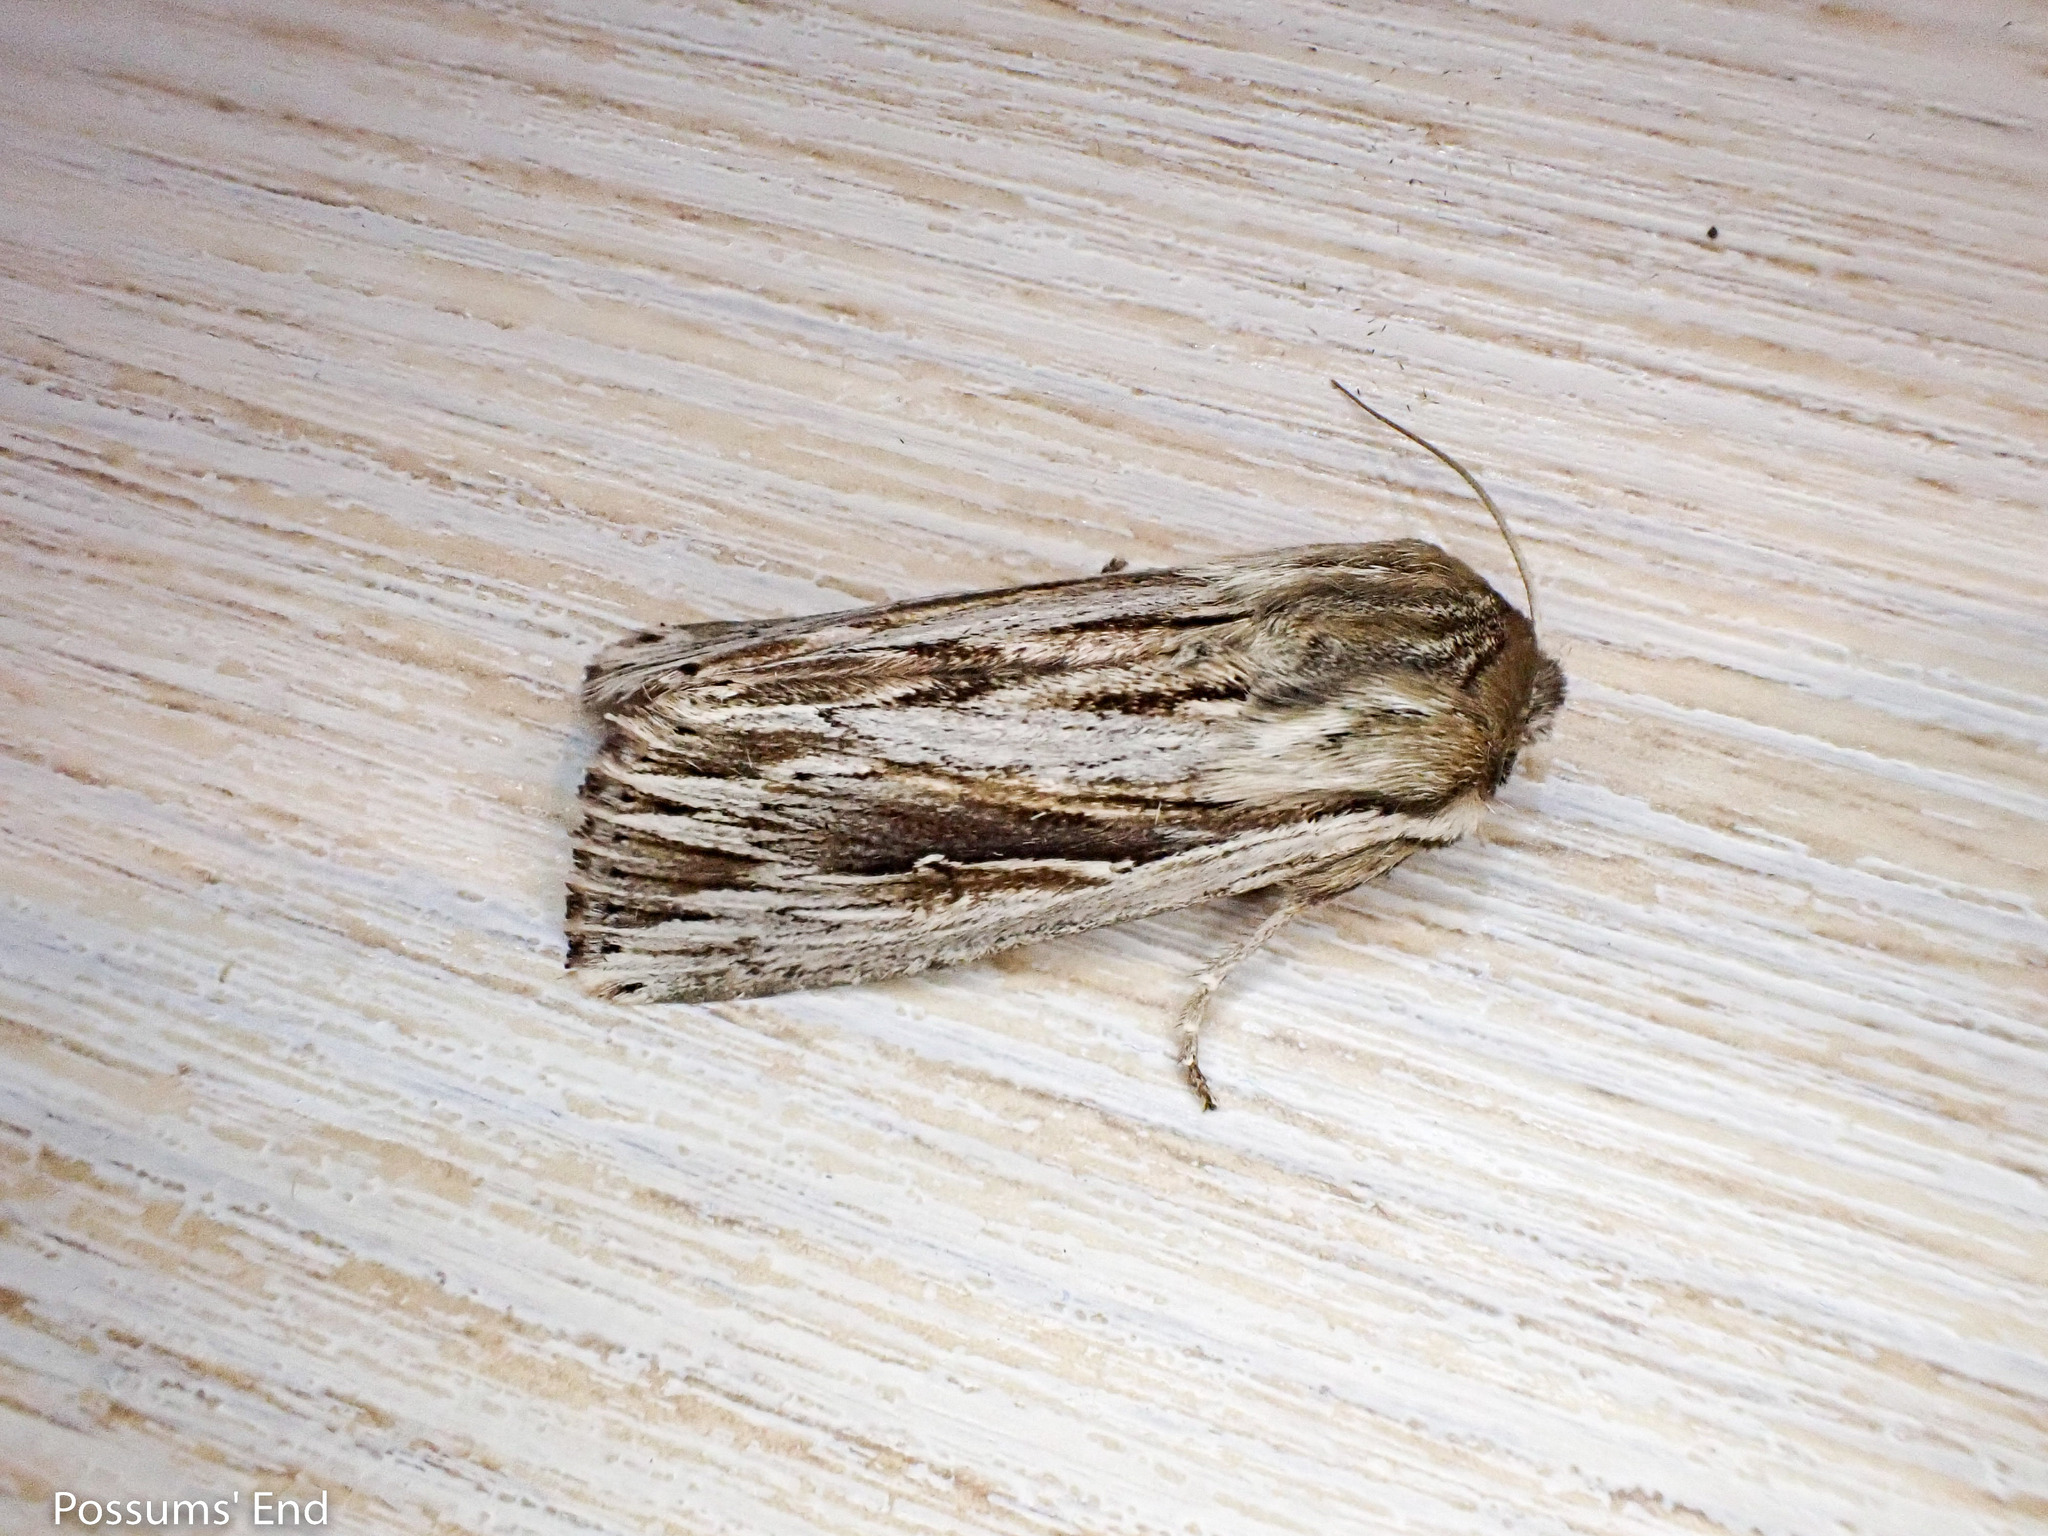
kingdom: Animalia
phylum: Arthropoda
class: Insecta
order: Lepidoptera
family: Noctuidae
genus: Persectania
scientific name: Persectania aversa
